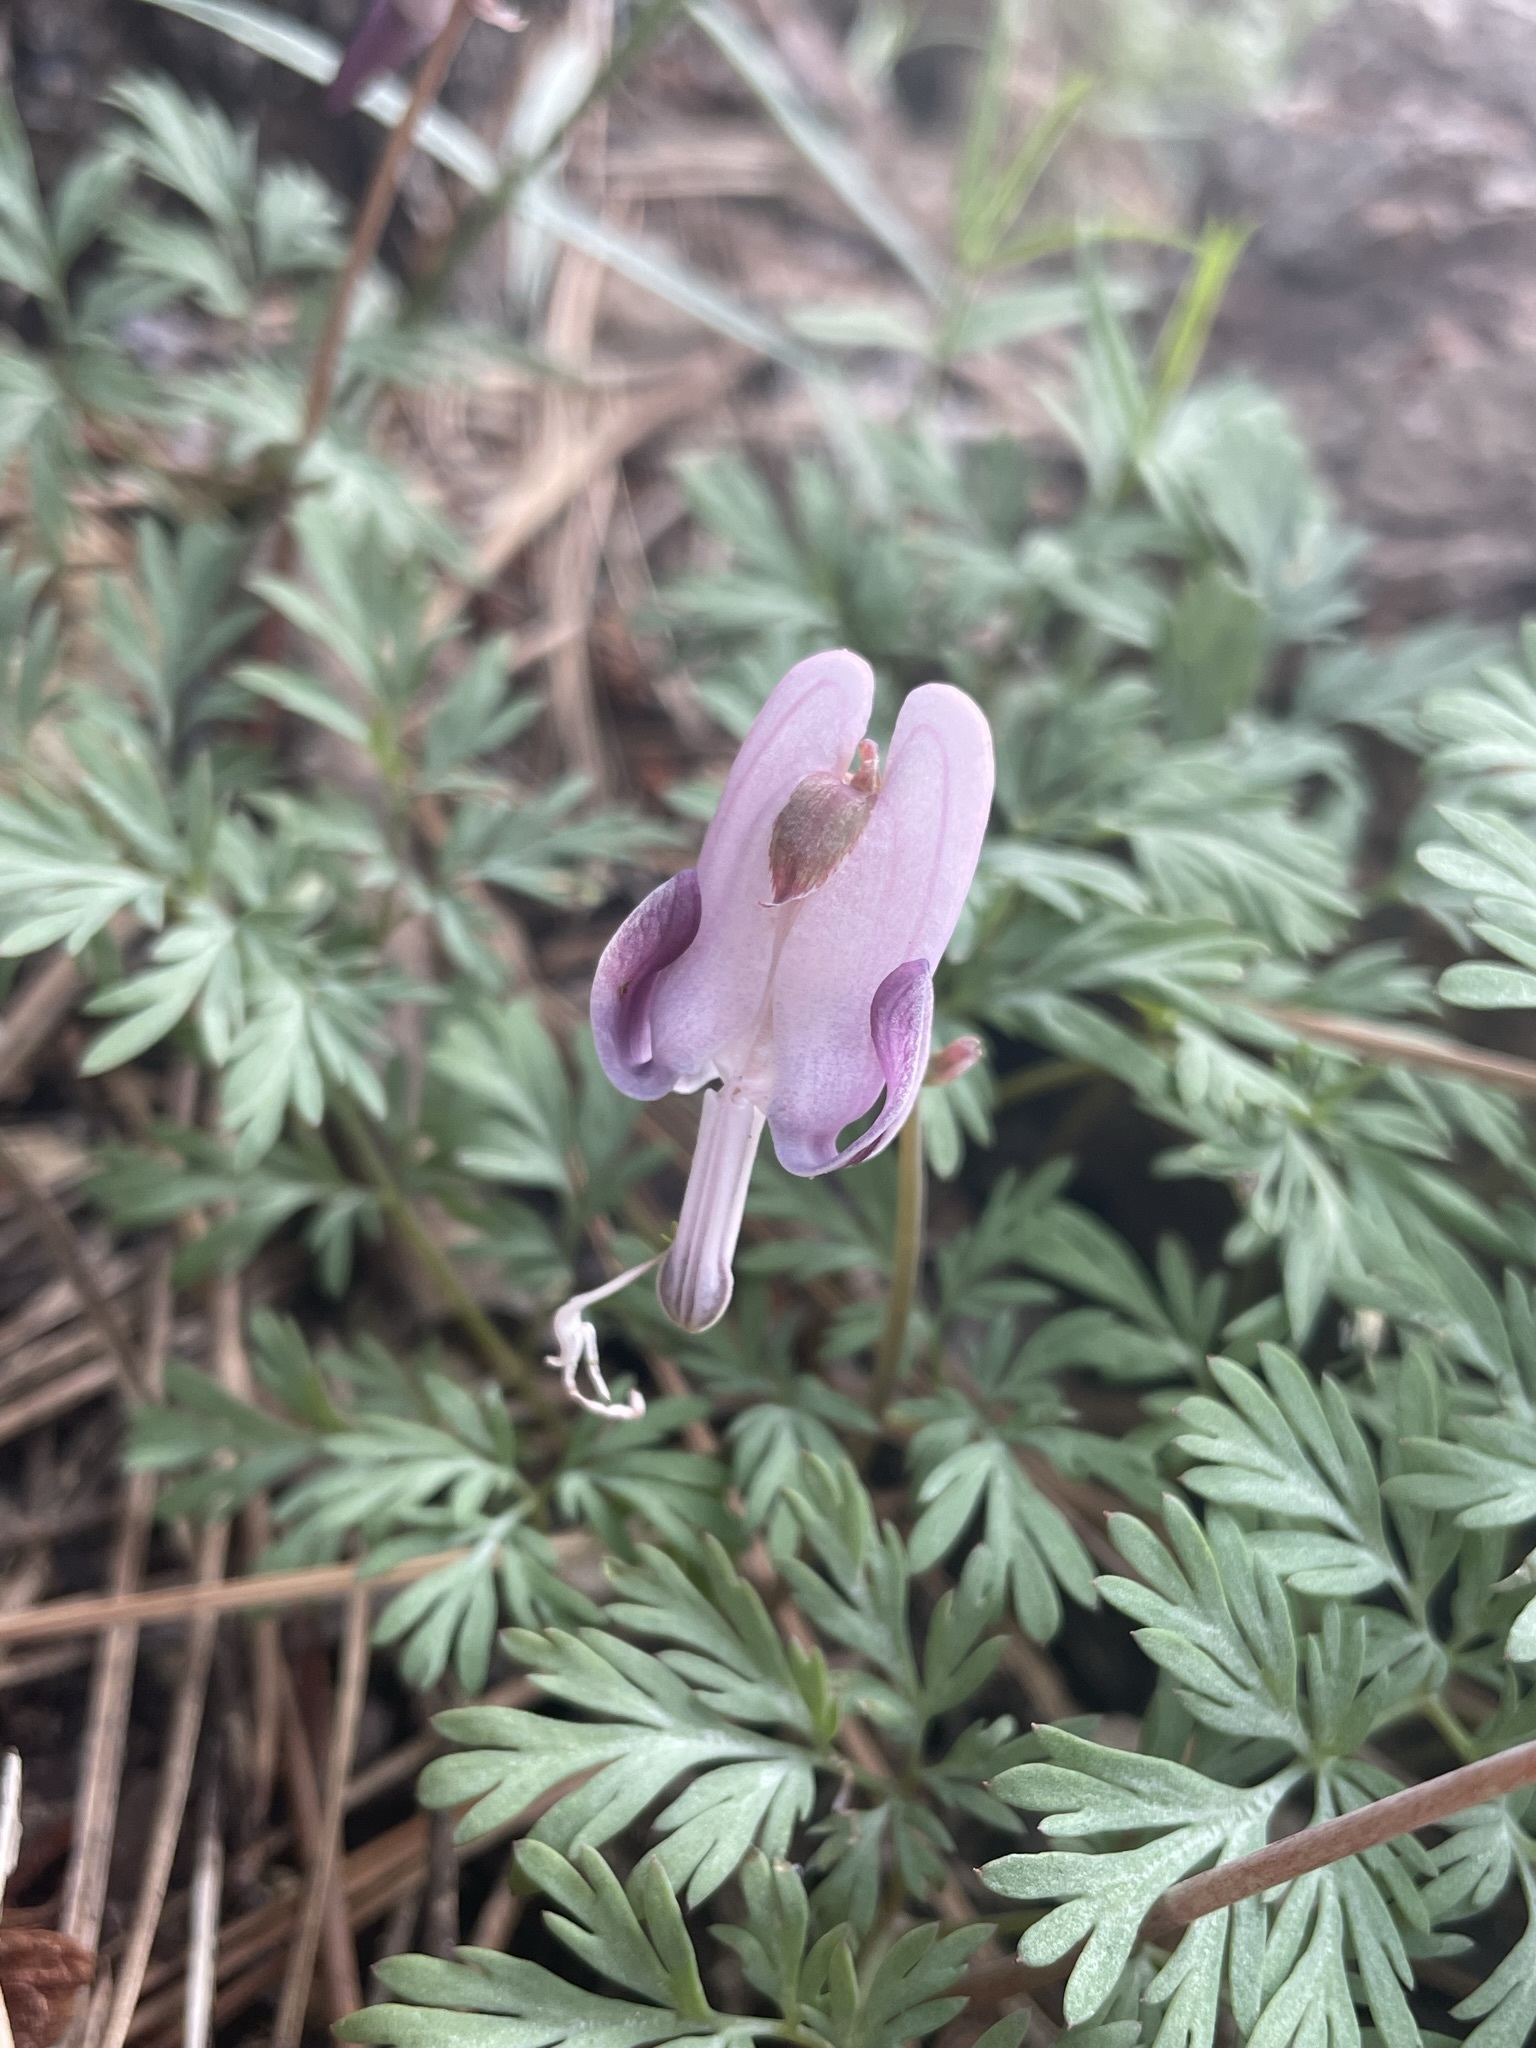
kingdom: Plantae
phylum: Tracheophyta
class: Magnoliopsida
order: Ranunculales
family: Papaveraceae
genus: Dicentra
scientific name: Dicentra pauciflora
